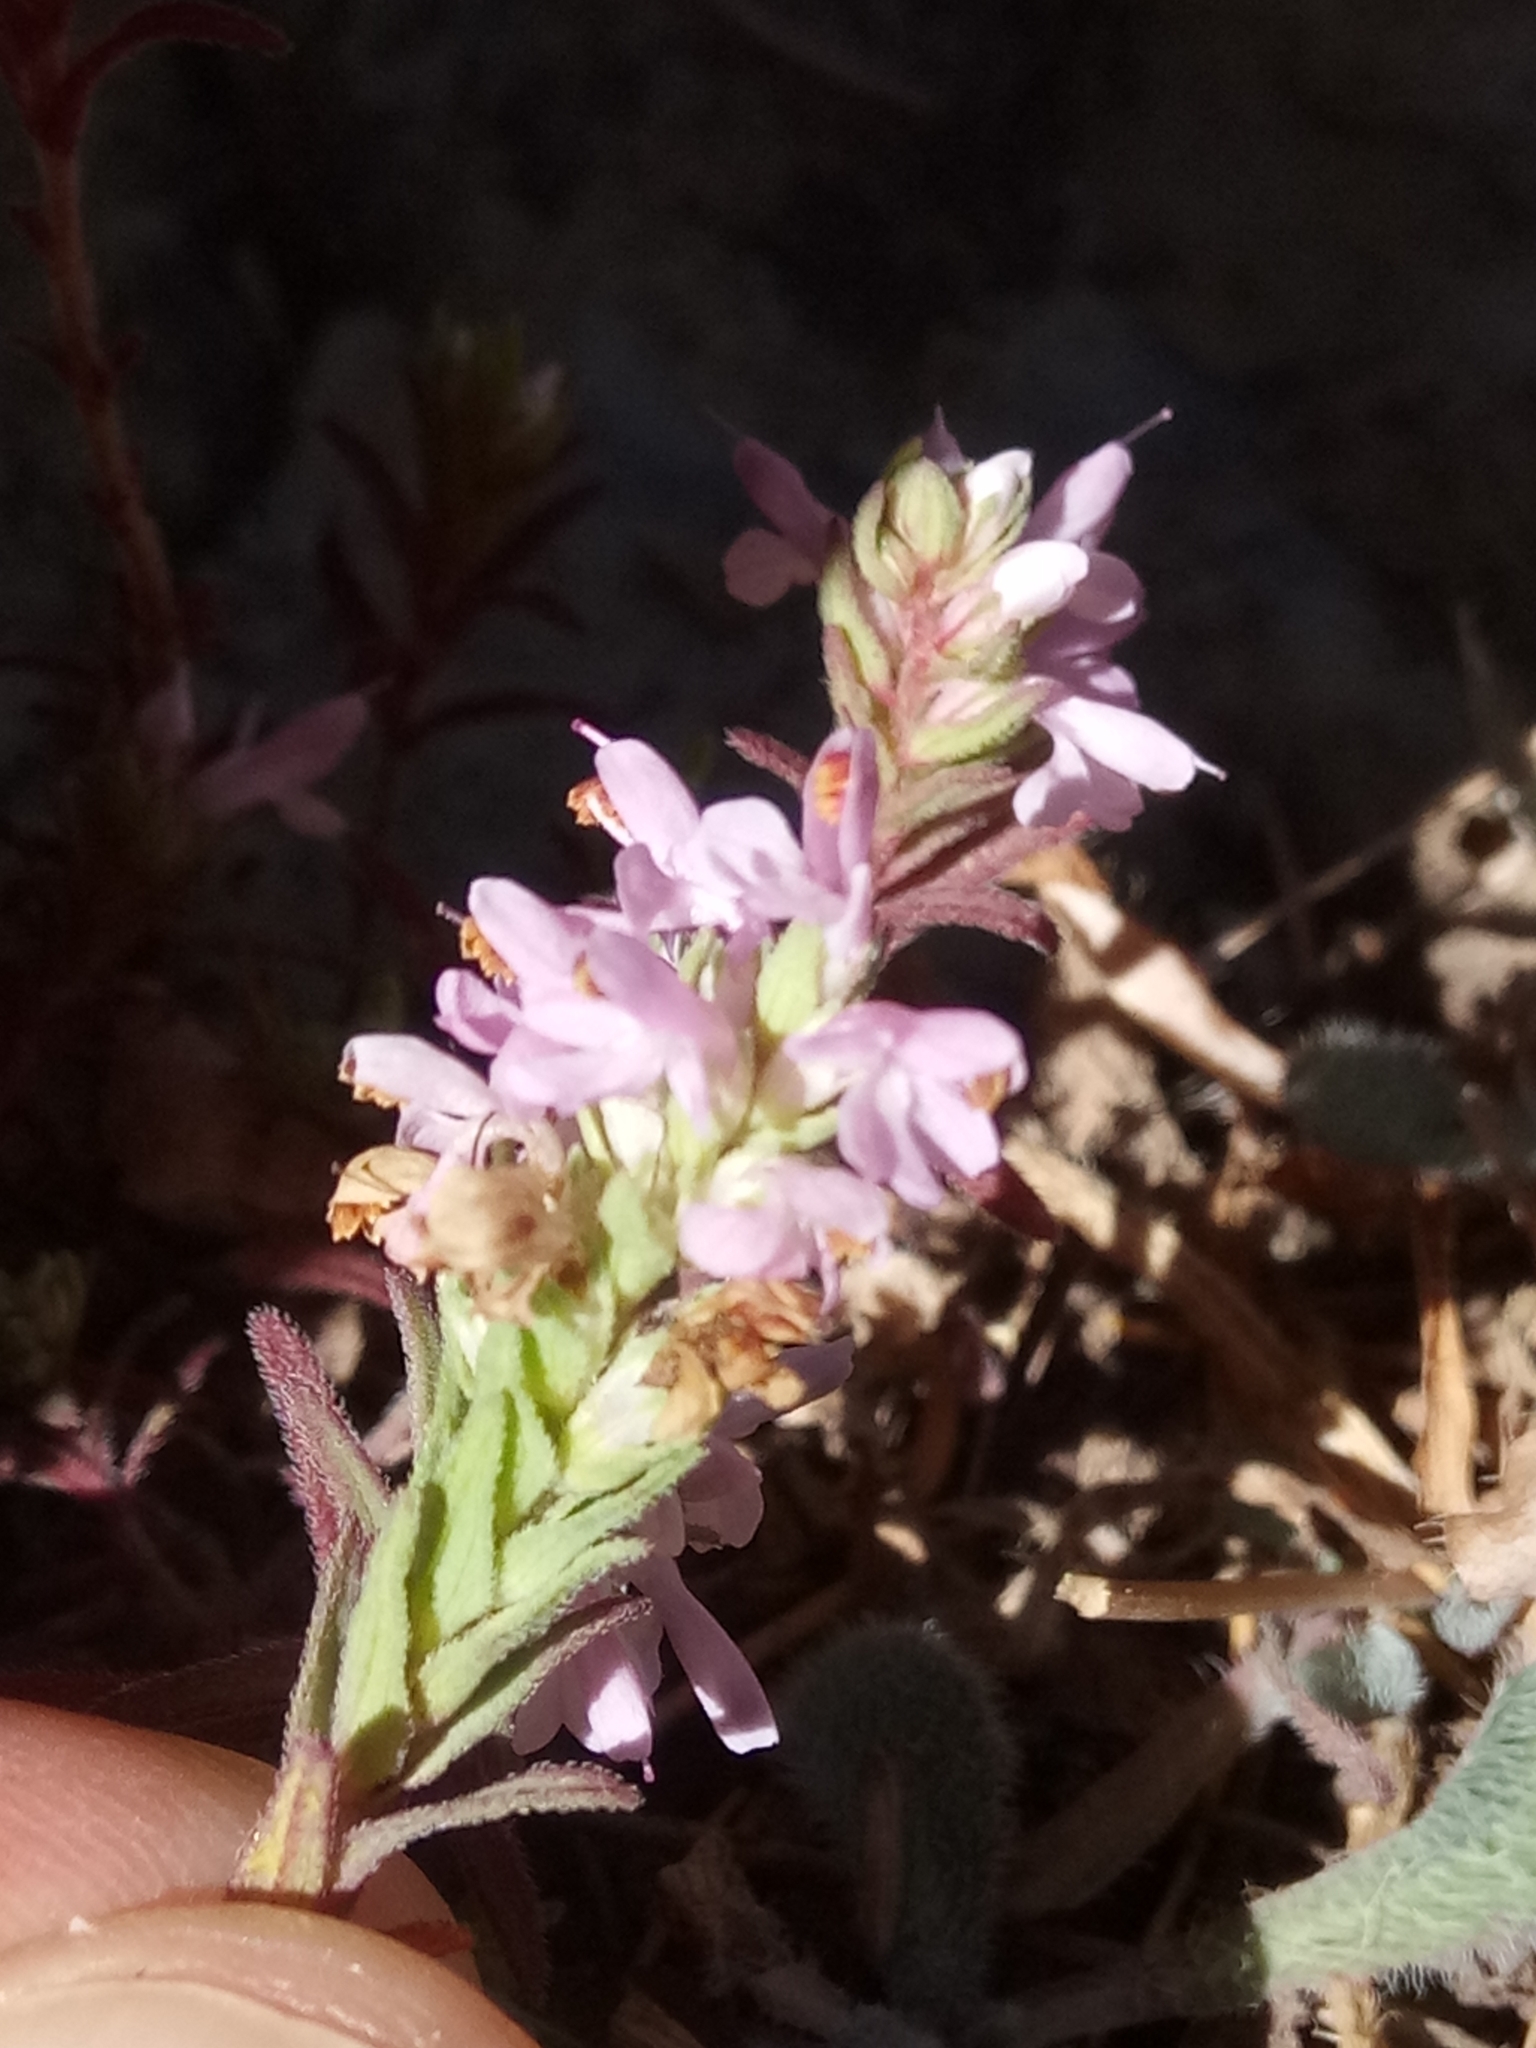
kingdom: Plantae
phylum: Tracheophyta
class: Magnoliopsida
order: Lamiales
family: Orobanchaceae
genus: Odontites
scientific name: Odontites violaceus
